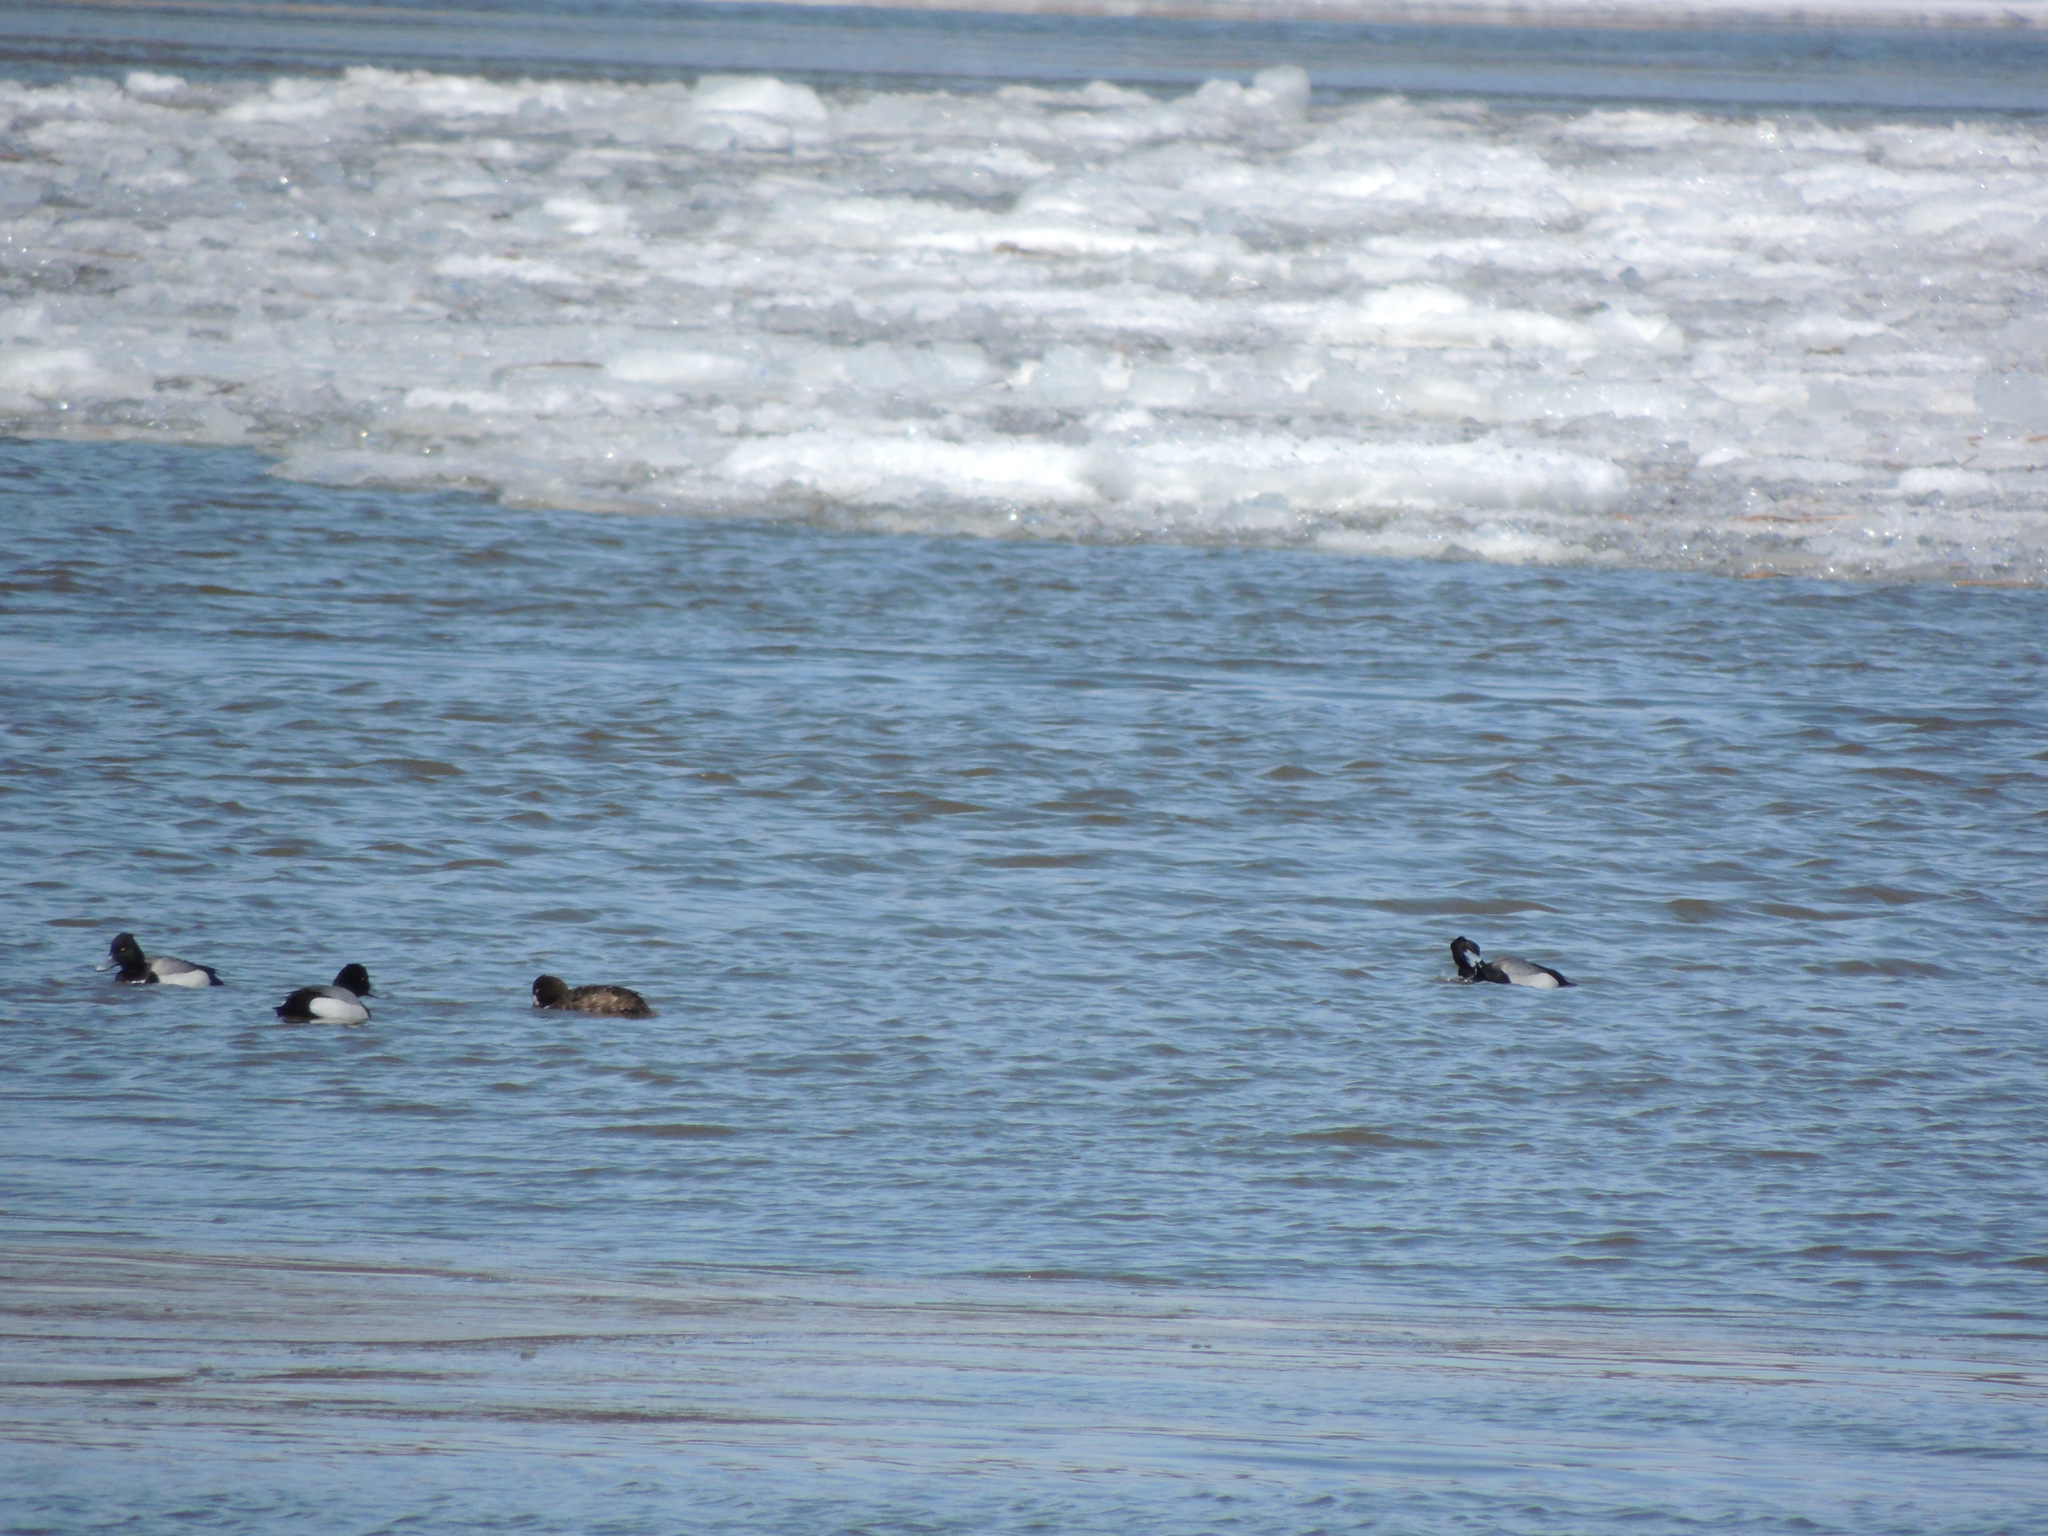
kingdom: Animalia
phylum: Chordata
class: Aves
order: Anseriformes
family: Anatidae
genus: Aythya
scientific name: Aythya affinis
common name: Lesser scaup
